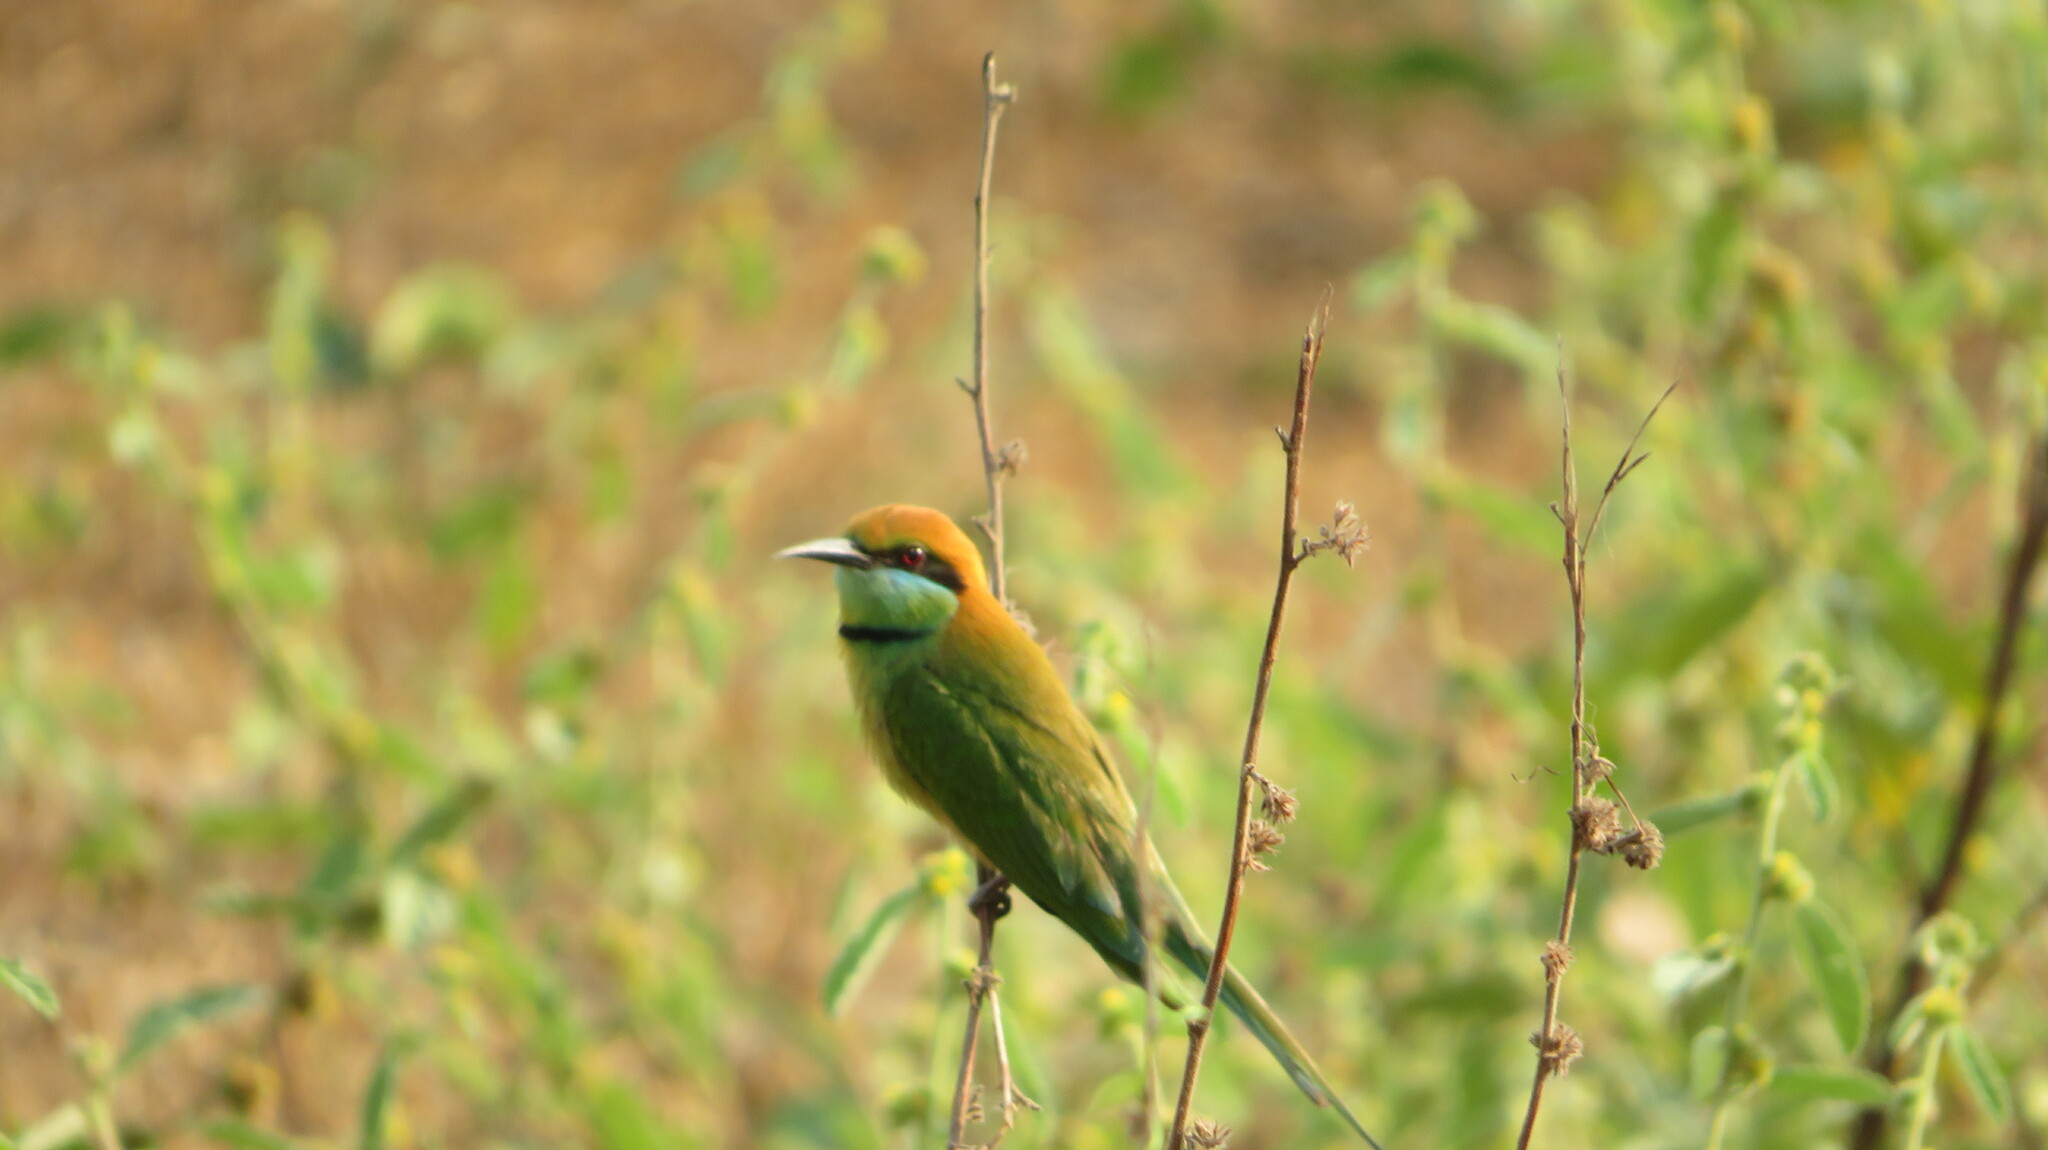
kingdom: Animalia
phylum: Chordata
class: Aves
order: Coraciiformes
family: Meropidae
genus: Merops
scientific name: Merops orientalis
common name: Green bee-eater
